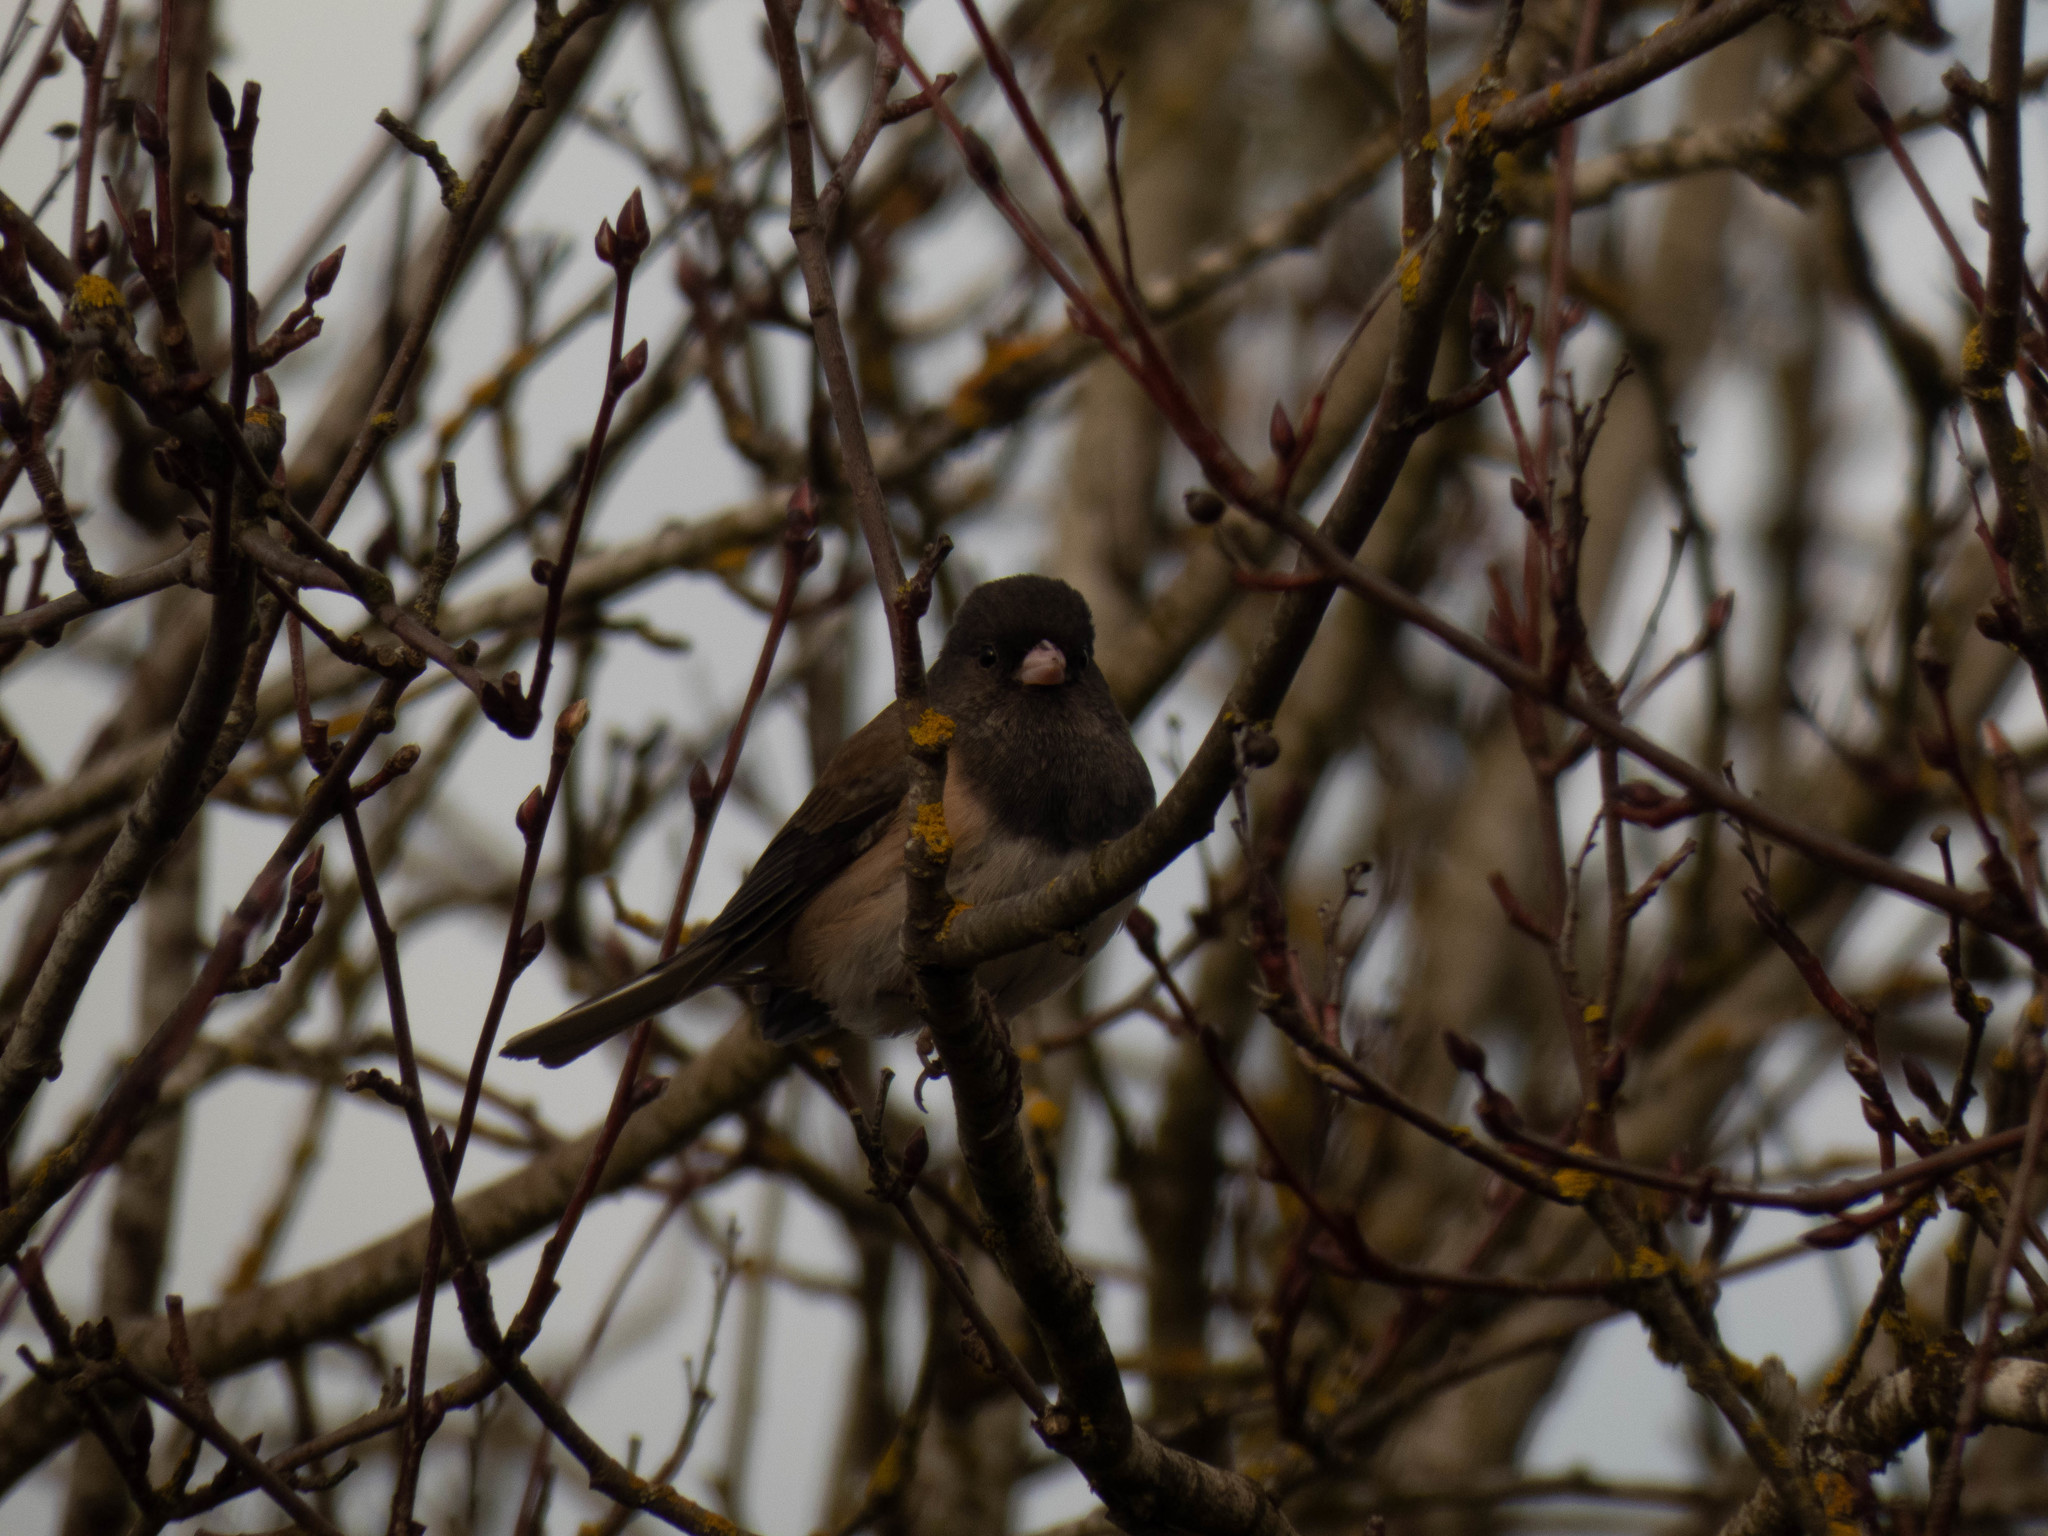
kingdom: Animalia
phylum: Chordata
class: Aves
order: Passeriformes
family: Passerellidae
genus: Junco
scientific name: Junco hyemalis
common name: Dark-eyed junco
